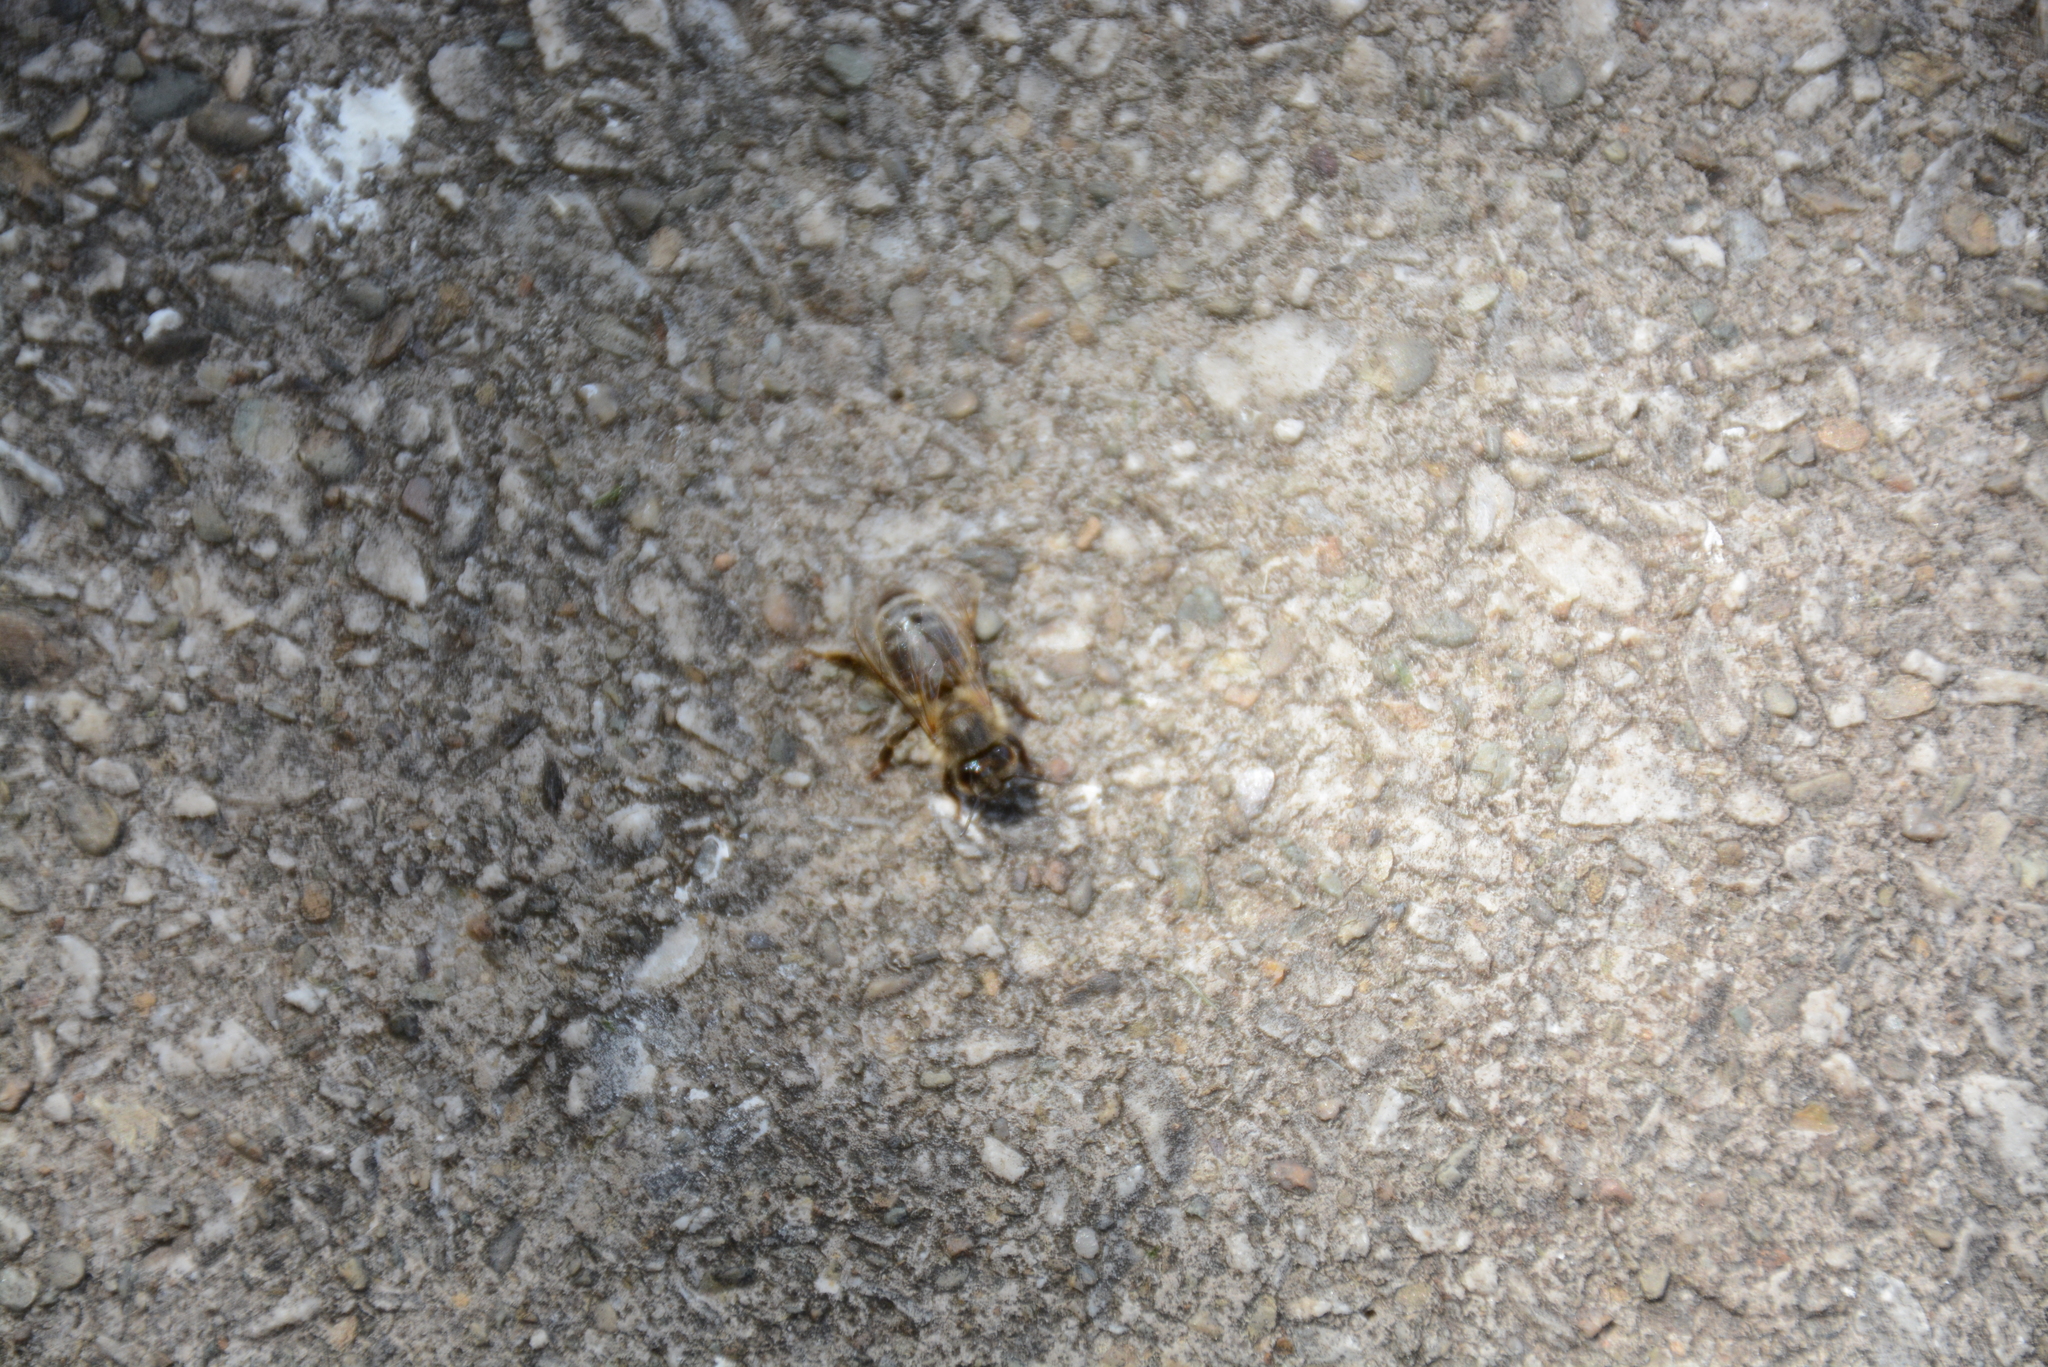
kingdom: Animalia
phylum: Arthropoda
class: Insecta
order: Hymenoptera
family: Apidae
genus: Apis
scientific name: Apis mellifera
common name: Honey bee
